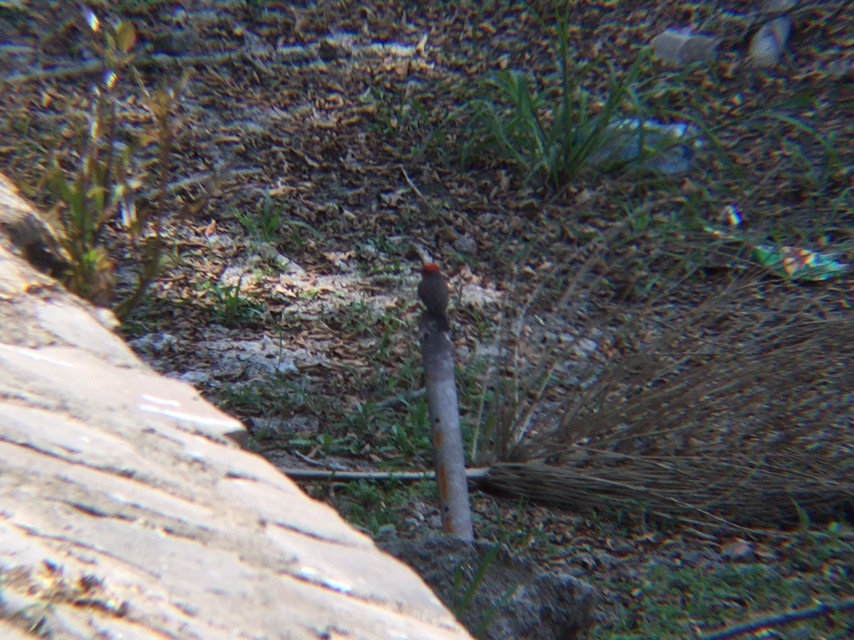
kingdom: Animalia
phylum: Chordata
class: Aves
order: Passeriformes
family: Tyrannidae
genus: Pyrocephalus
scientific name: Pyrocephalus rubinus
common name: Vermilion flycatcher
